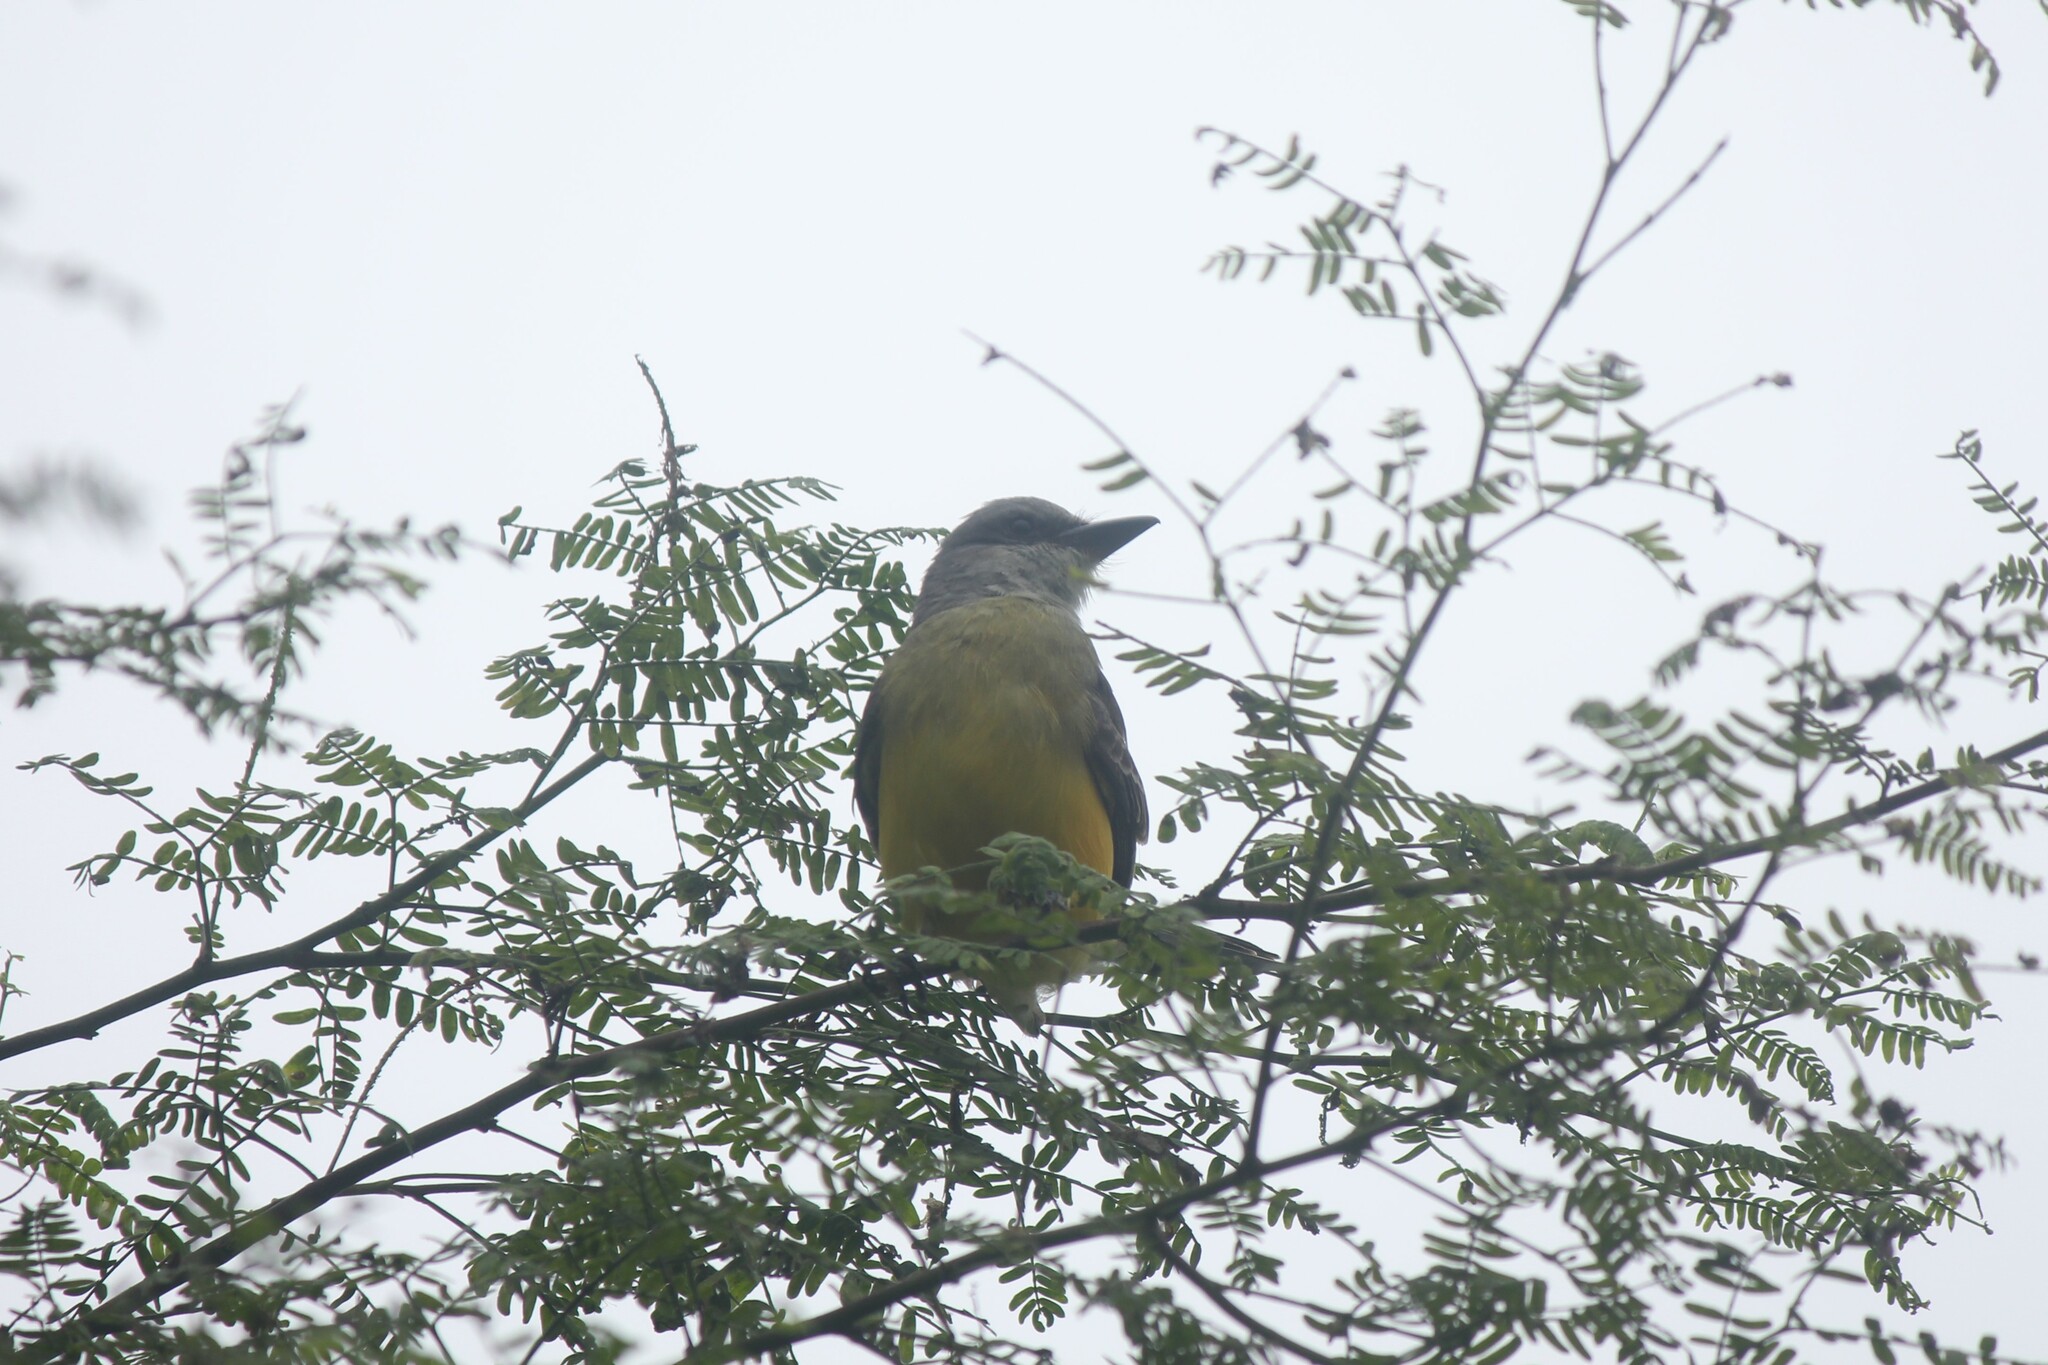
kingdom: Animalia
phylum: Chordata
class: Aves
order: Passeriformes
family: Tyrannidae
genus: Tyrannus
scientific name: Tyrannus melancholicus
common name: Tropical kingbird
